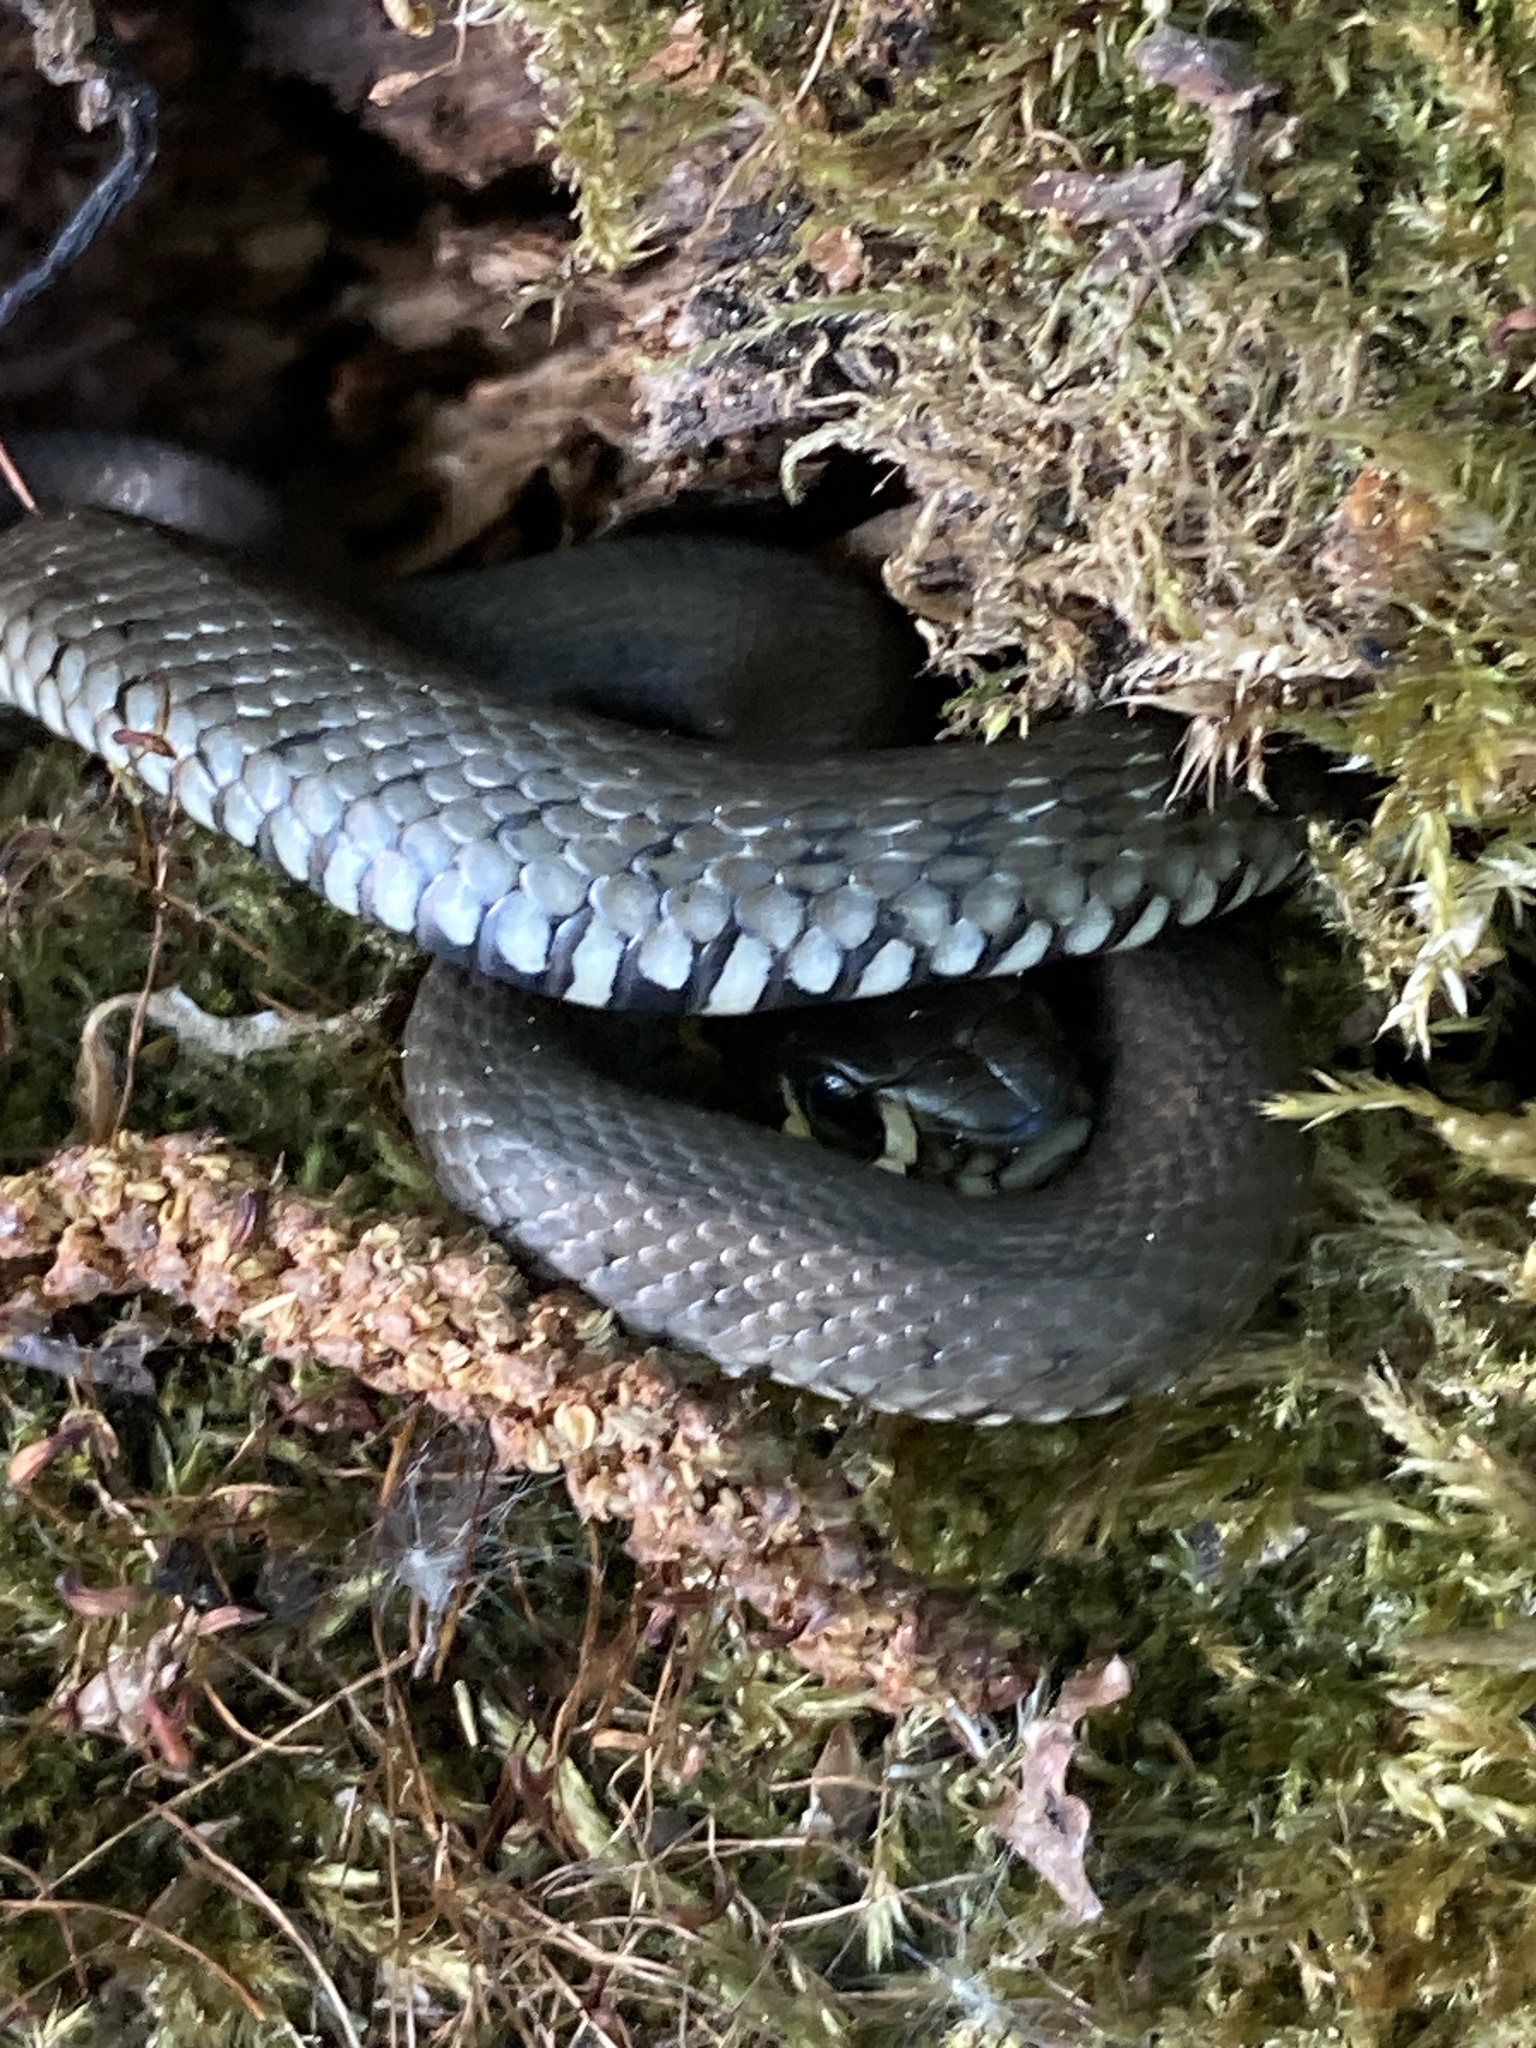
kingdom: Animalia
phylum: Chordata
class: Squamata
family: Colubridae
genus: Natrix
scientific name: Natrix natrix
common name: Grass snake
